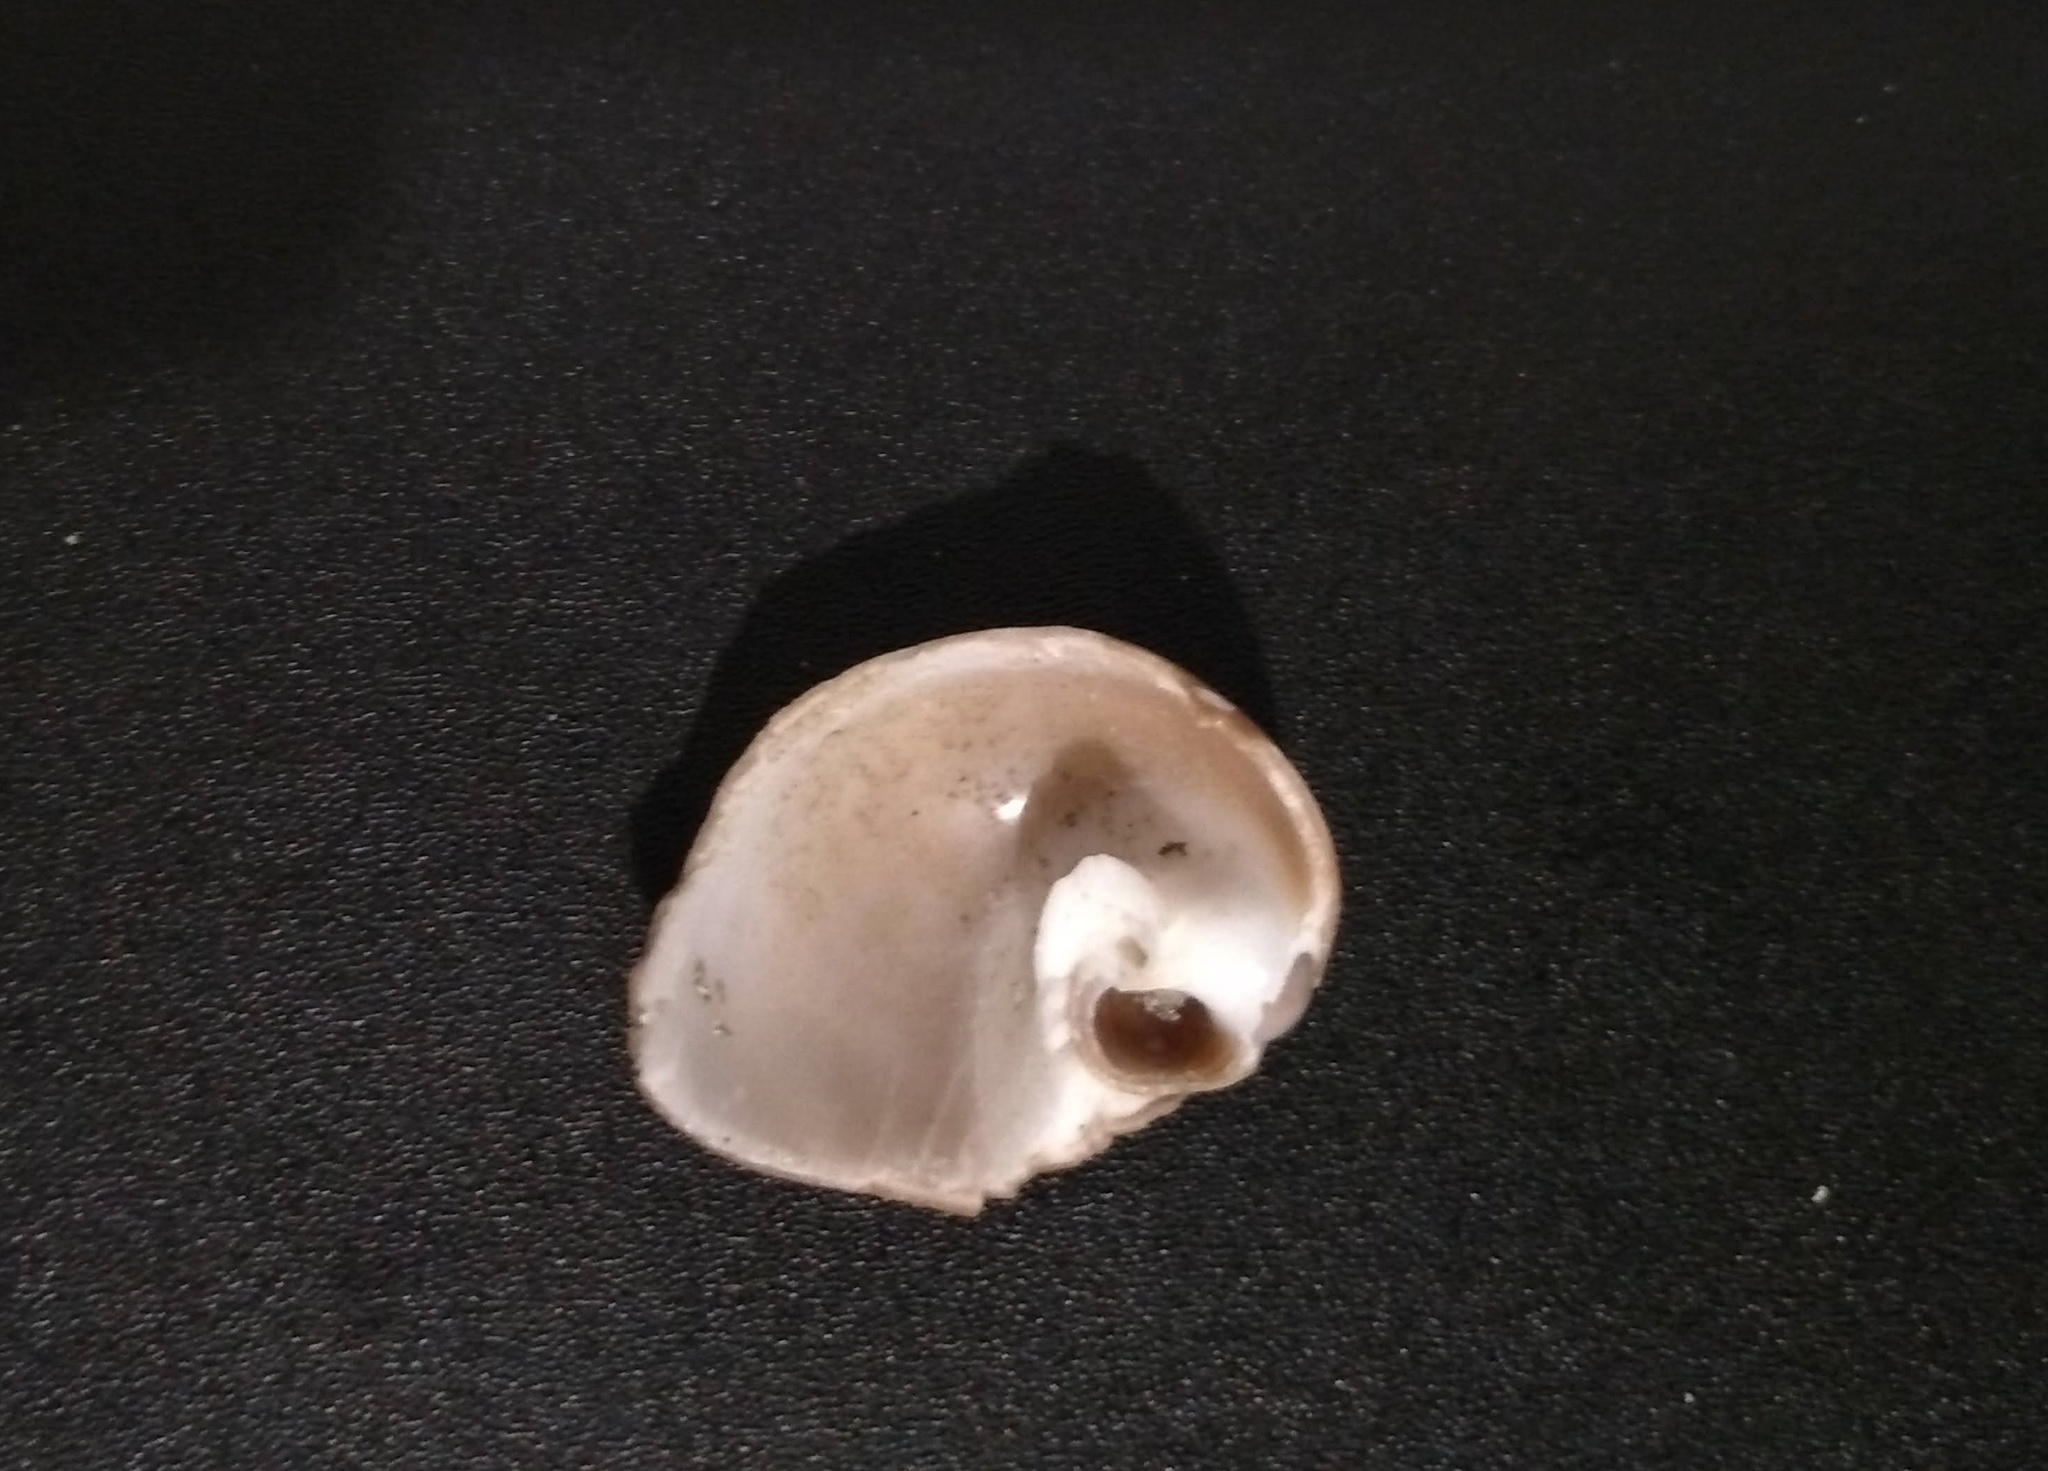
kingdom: Animalia
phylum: Mollusca
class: Gastropoda
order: Littorinimorpha
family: Naticidae
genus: Polinices
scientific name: Polinices hepaticus
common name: Brown moonsnail
